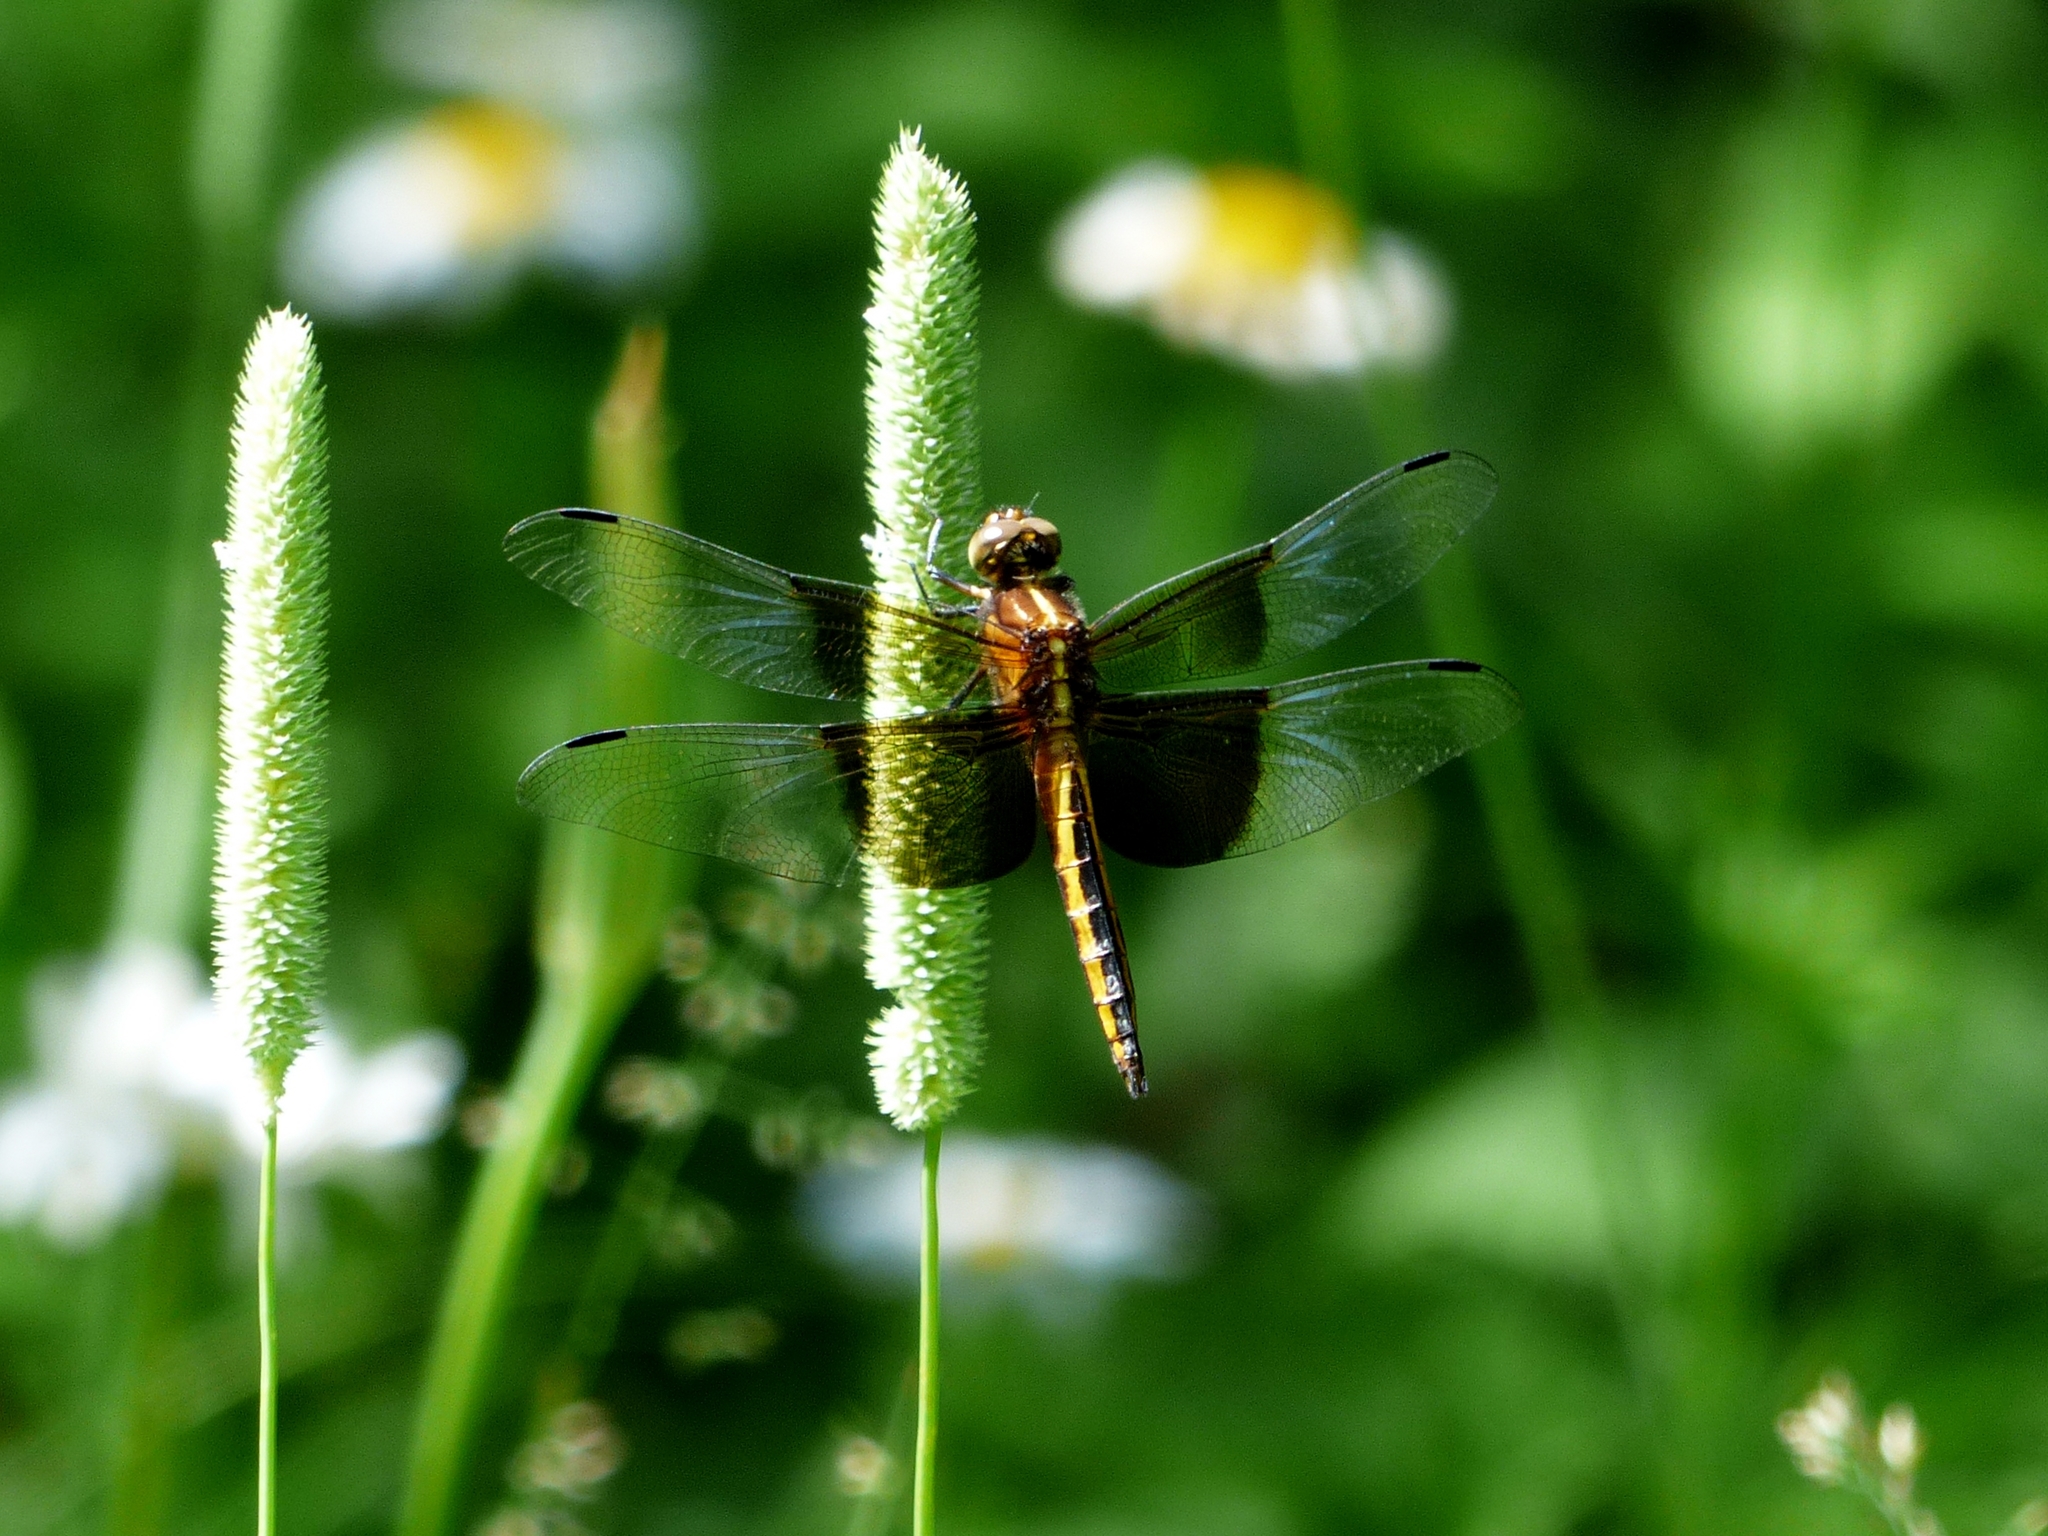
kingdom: Animalia
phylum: Arthropoda
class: Insecta
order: Odonata
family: Libellulidae
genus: Libellula
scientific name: Libellula luctuosa
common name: Widow skimmer
